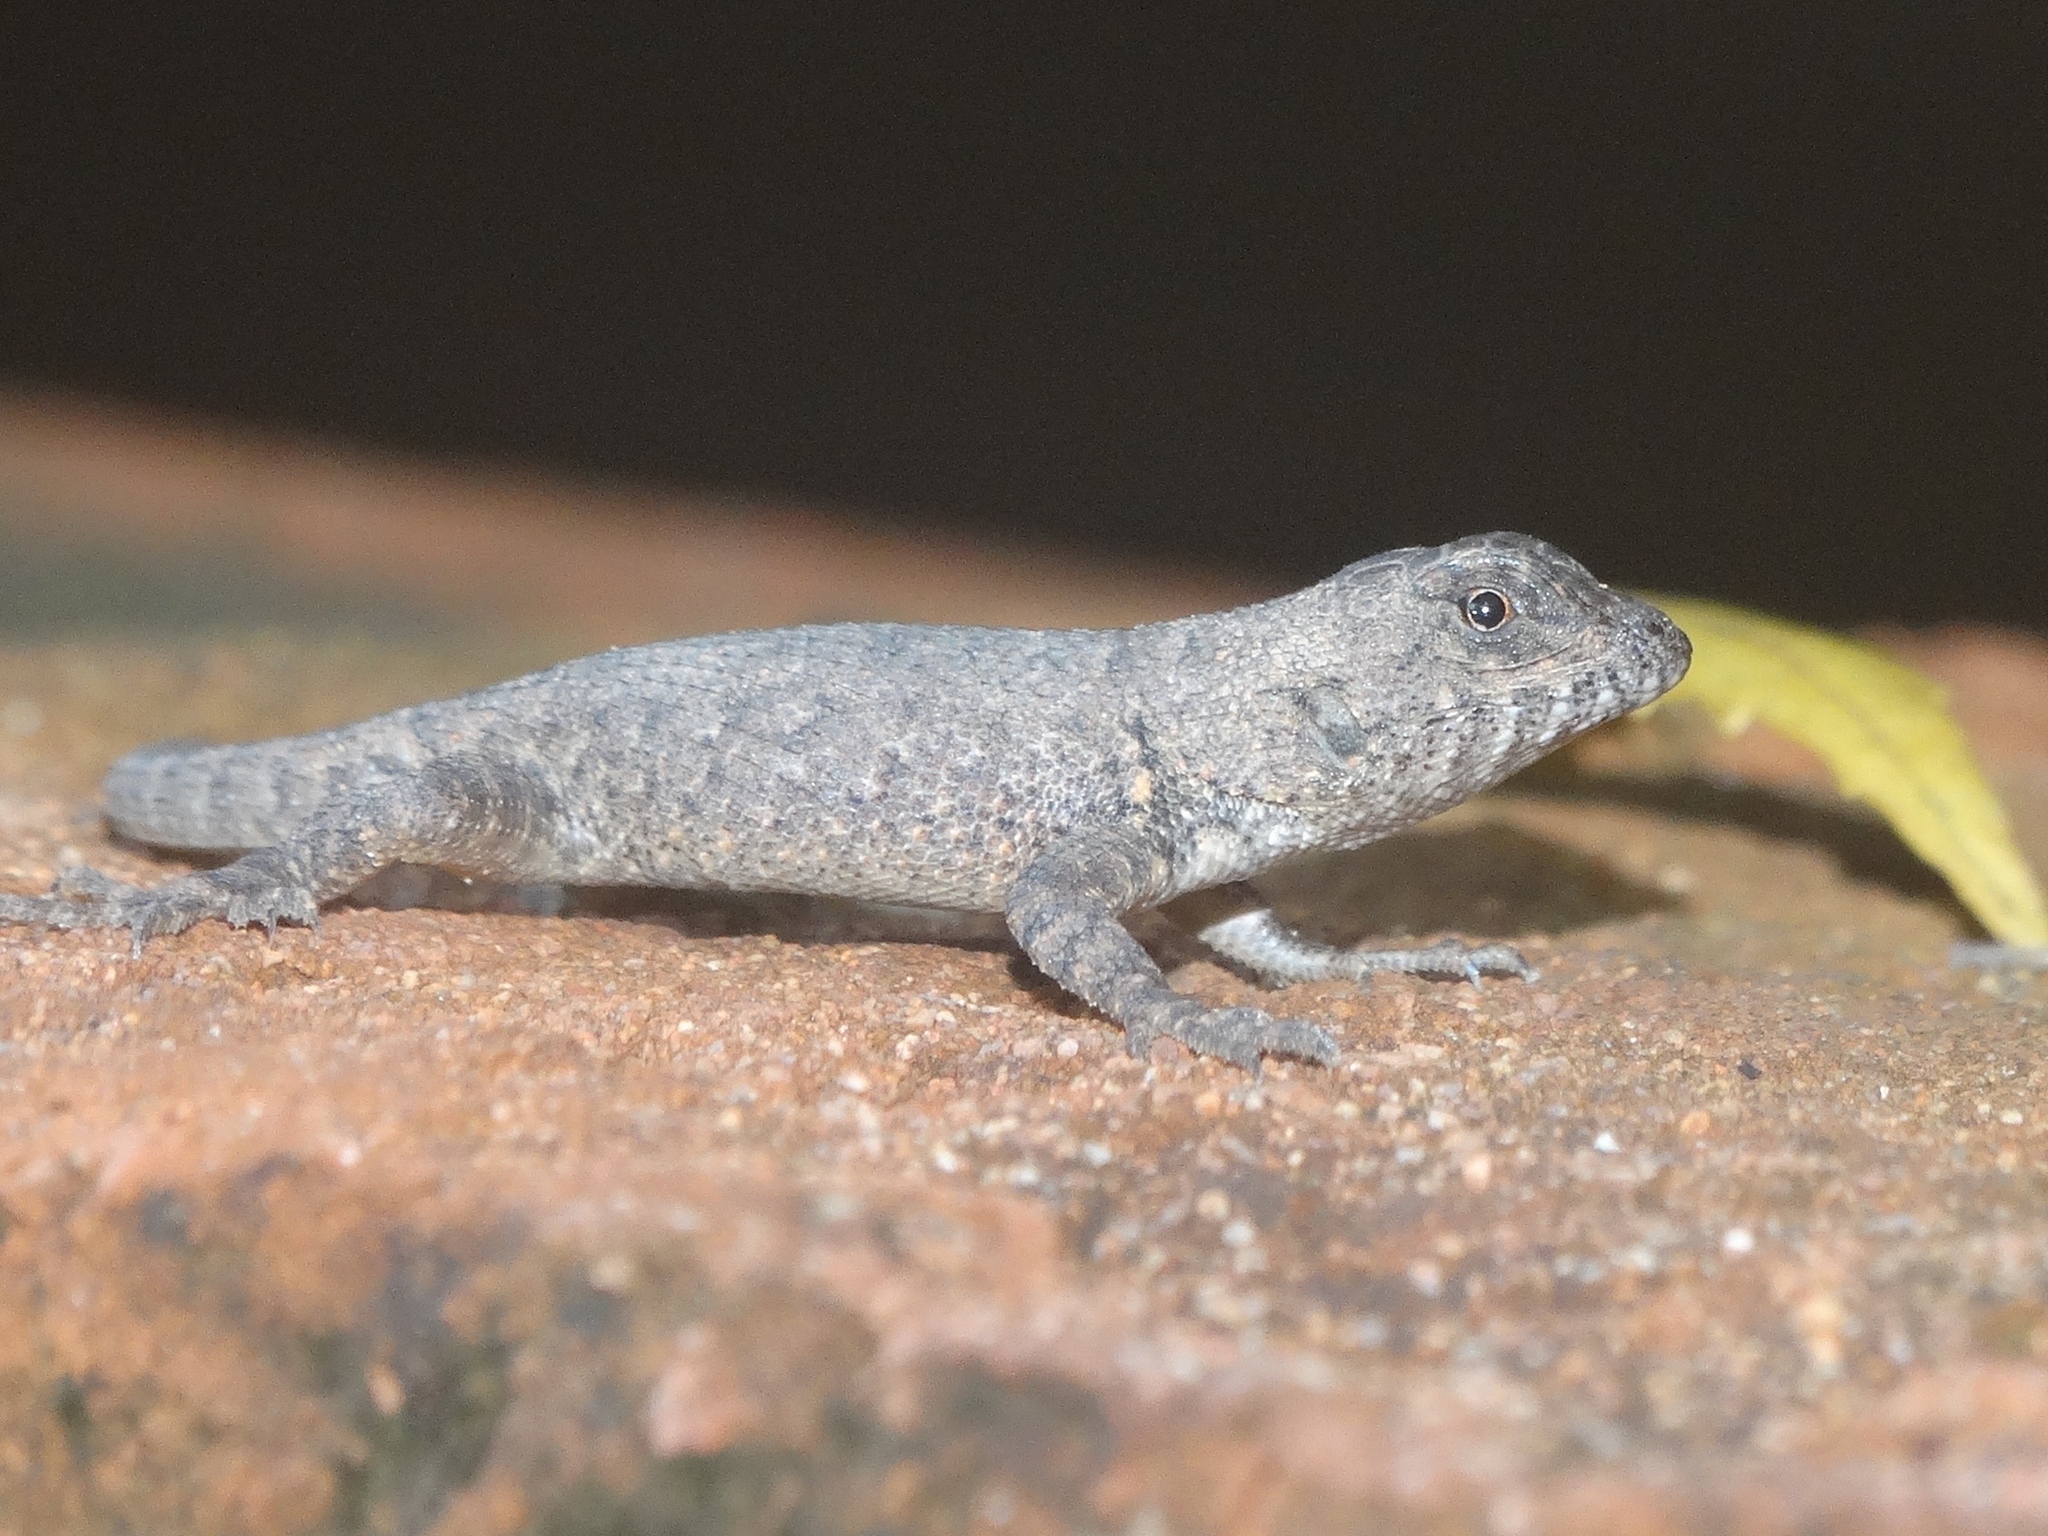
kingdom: Animalia
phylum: Chordata
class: Squamata
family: Phrynosomatidae
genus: Sceloporus
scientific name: Sceloporus nelsoni
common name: Nelson's spiny lizard
